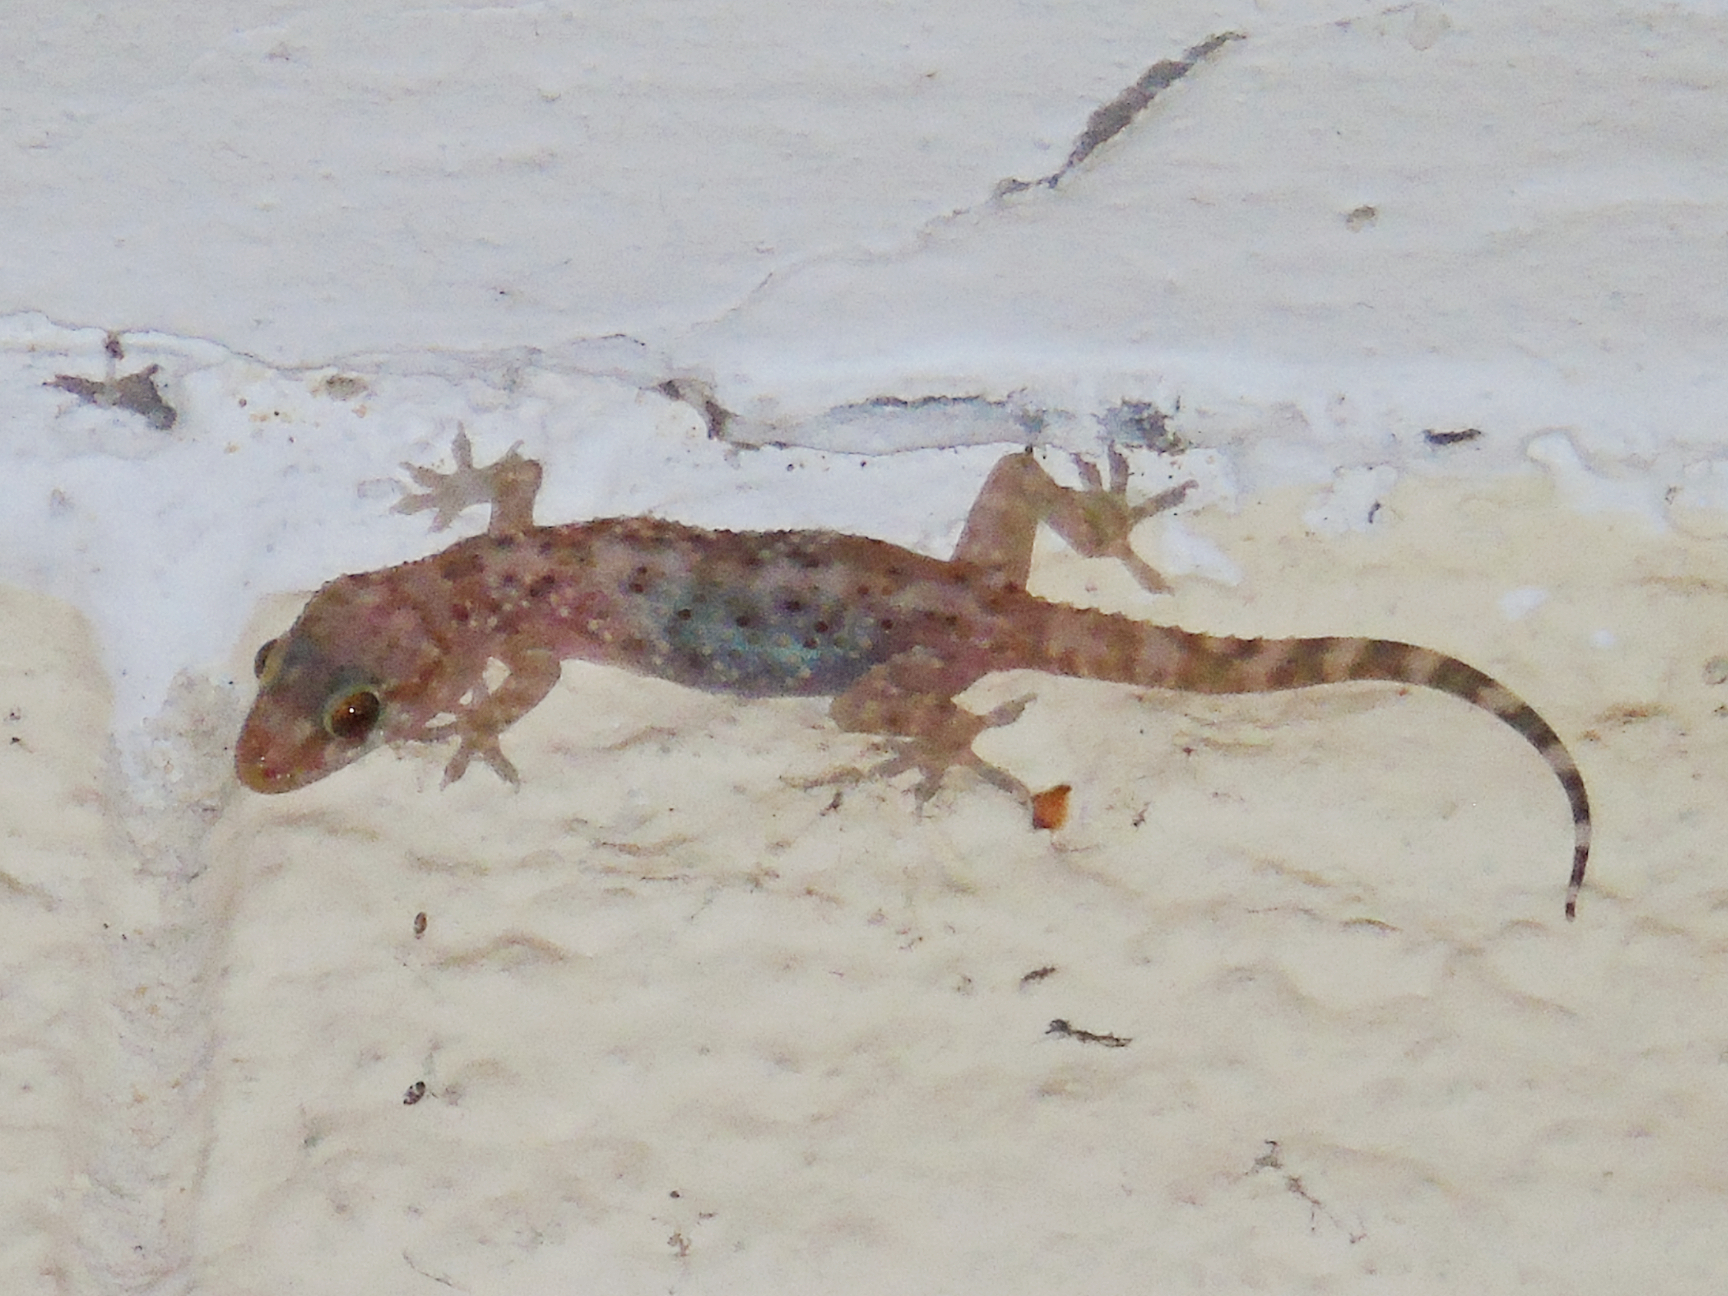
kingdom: Animalia
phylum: Chordata
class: Squamata
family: Gekkonidae
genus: Hemidactylus
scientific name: Hemidactylus turcicus
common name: Turkish gecko
